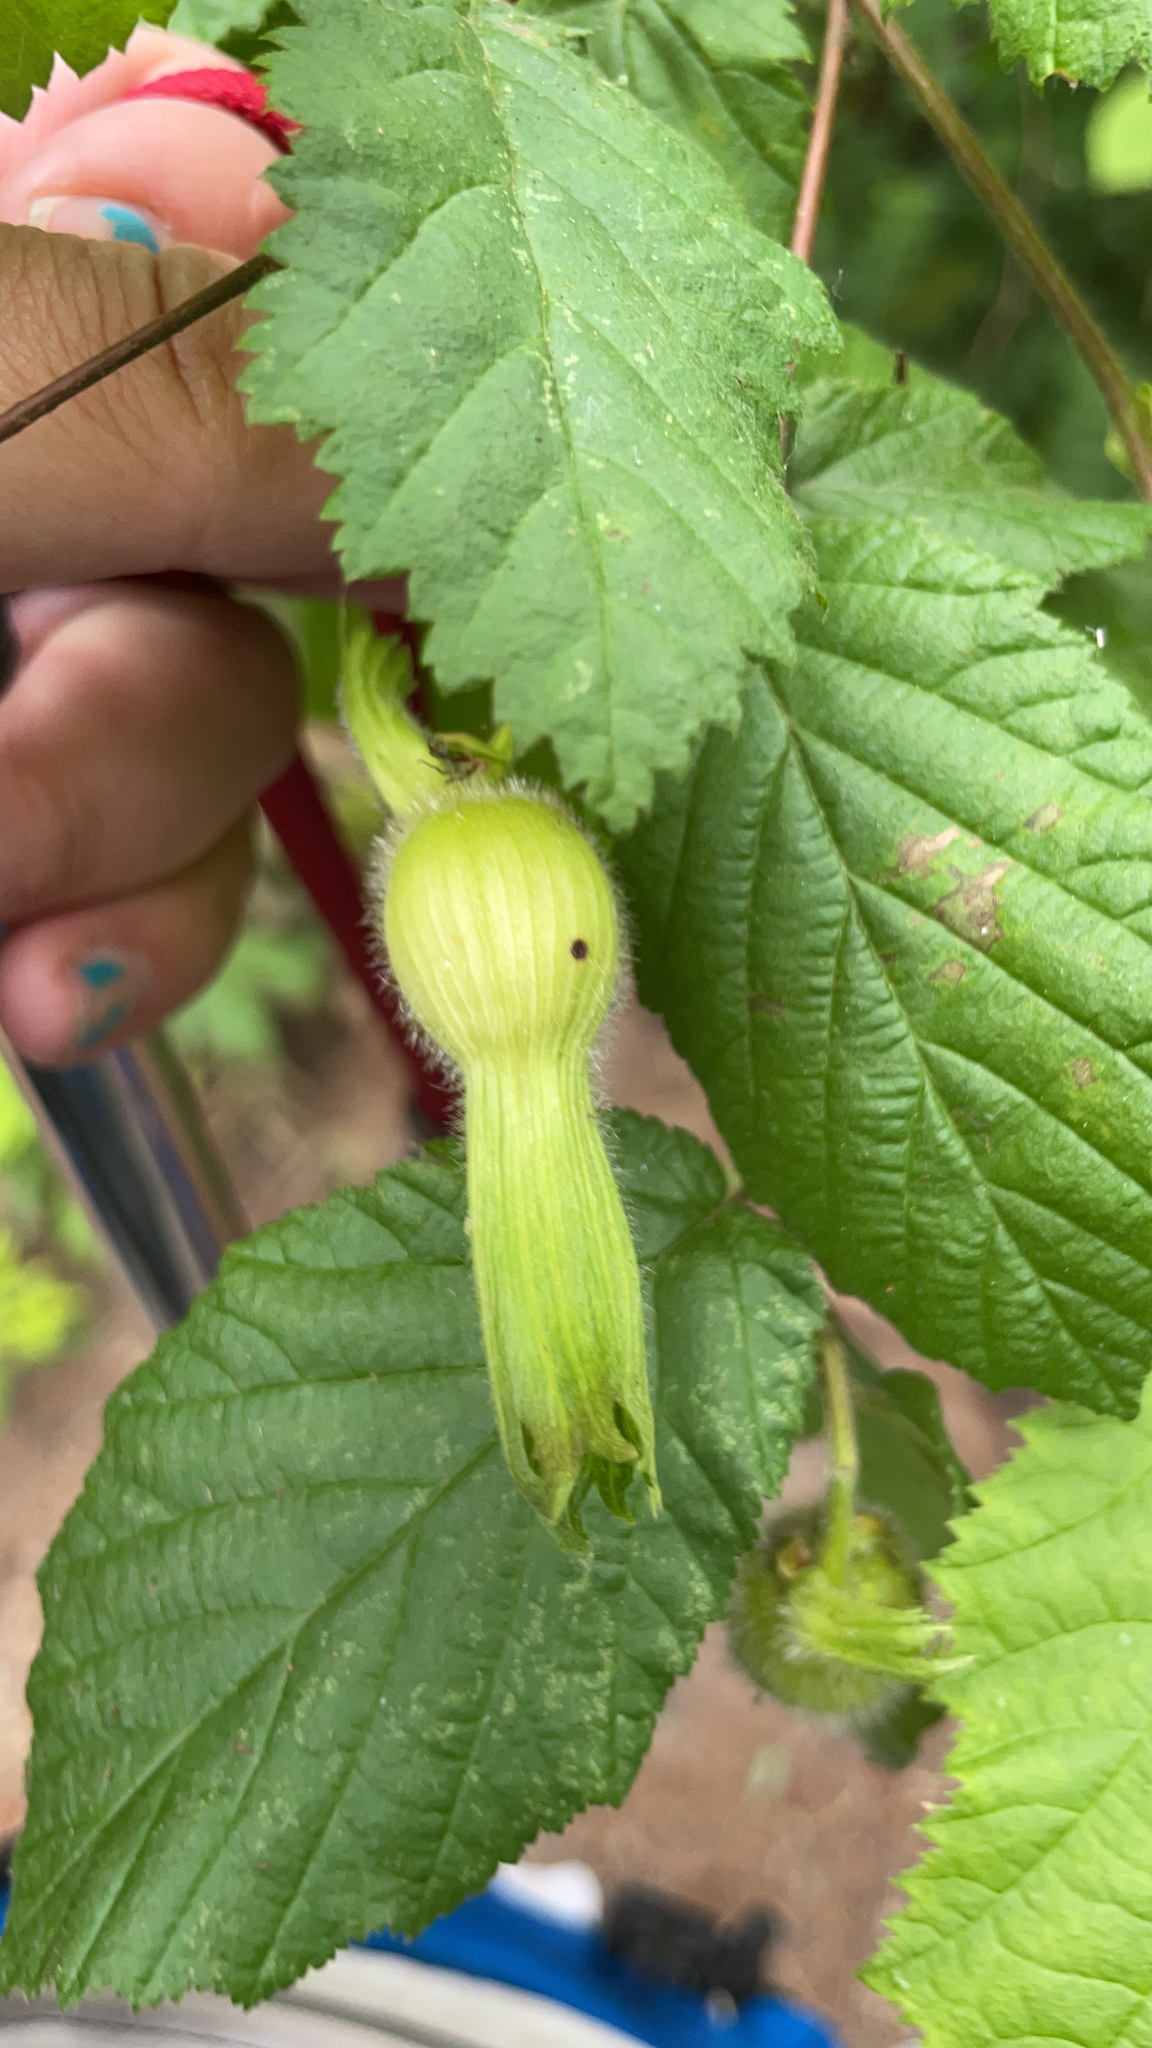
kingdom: Plantae
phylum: Tracheophyta
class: Magnoliopsida
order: Fagales
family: Betulaceae
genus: Corylus
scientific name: Corylus cornuta
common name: Beaked hazel
